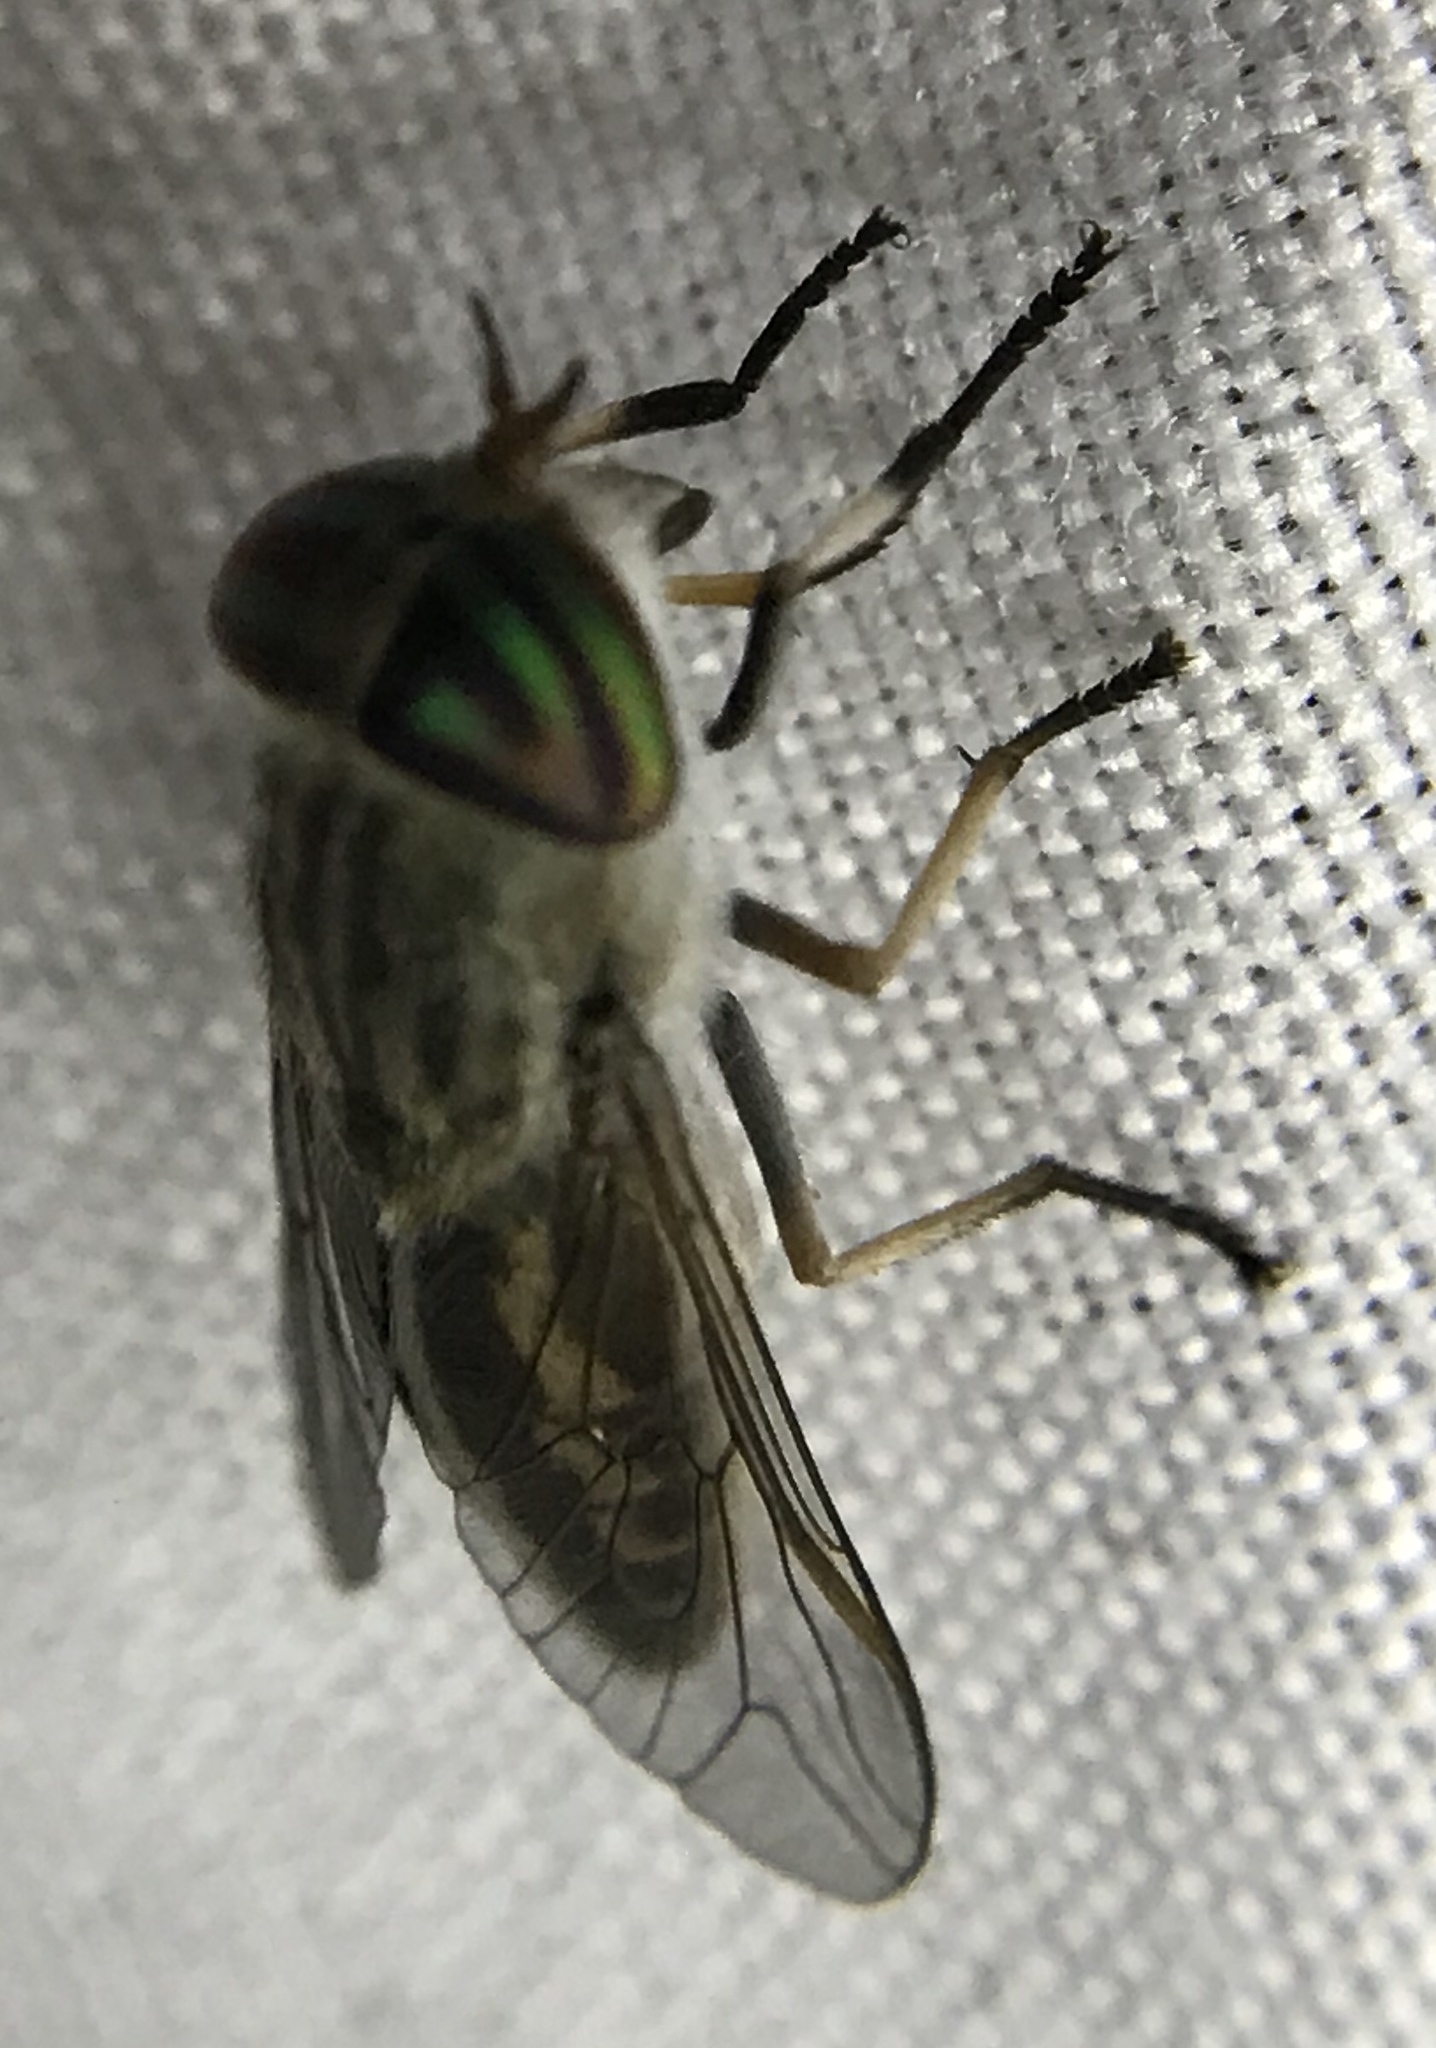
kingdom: Animalia
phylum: Arthropoda
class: Insecta
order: Diptera
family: Tabanidae
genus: Tabanus
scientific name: Tabanus lineola
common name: Striped horse fly
